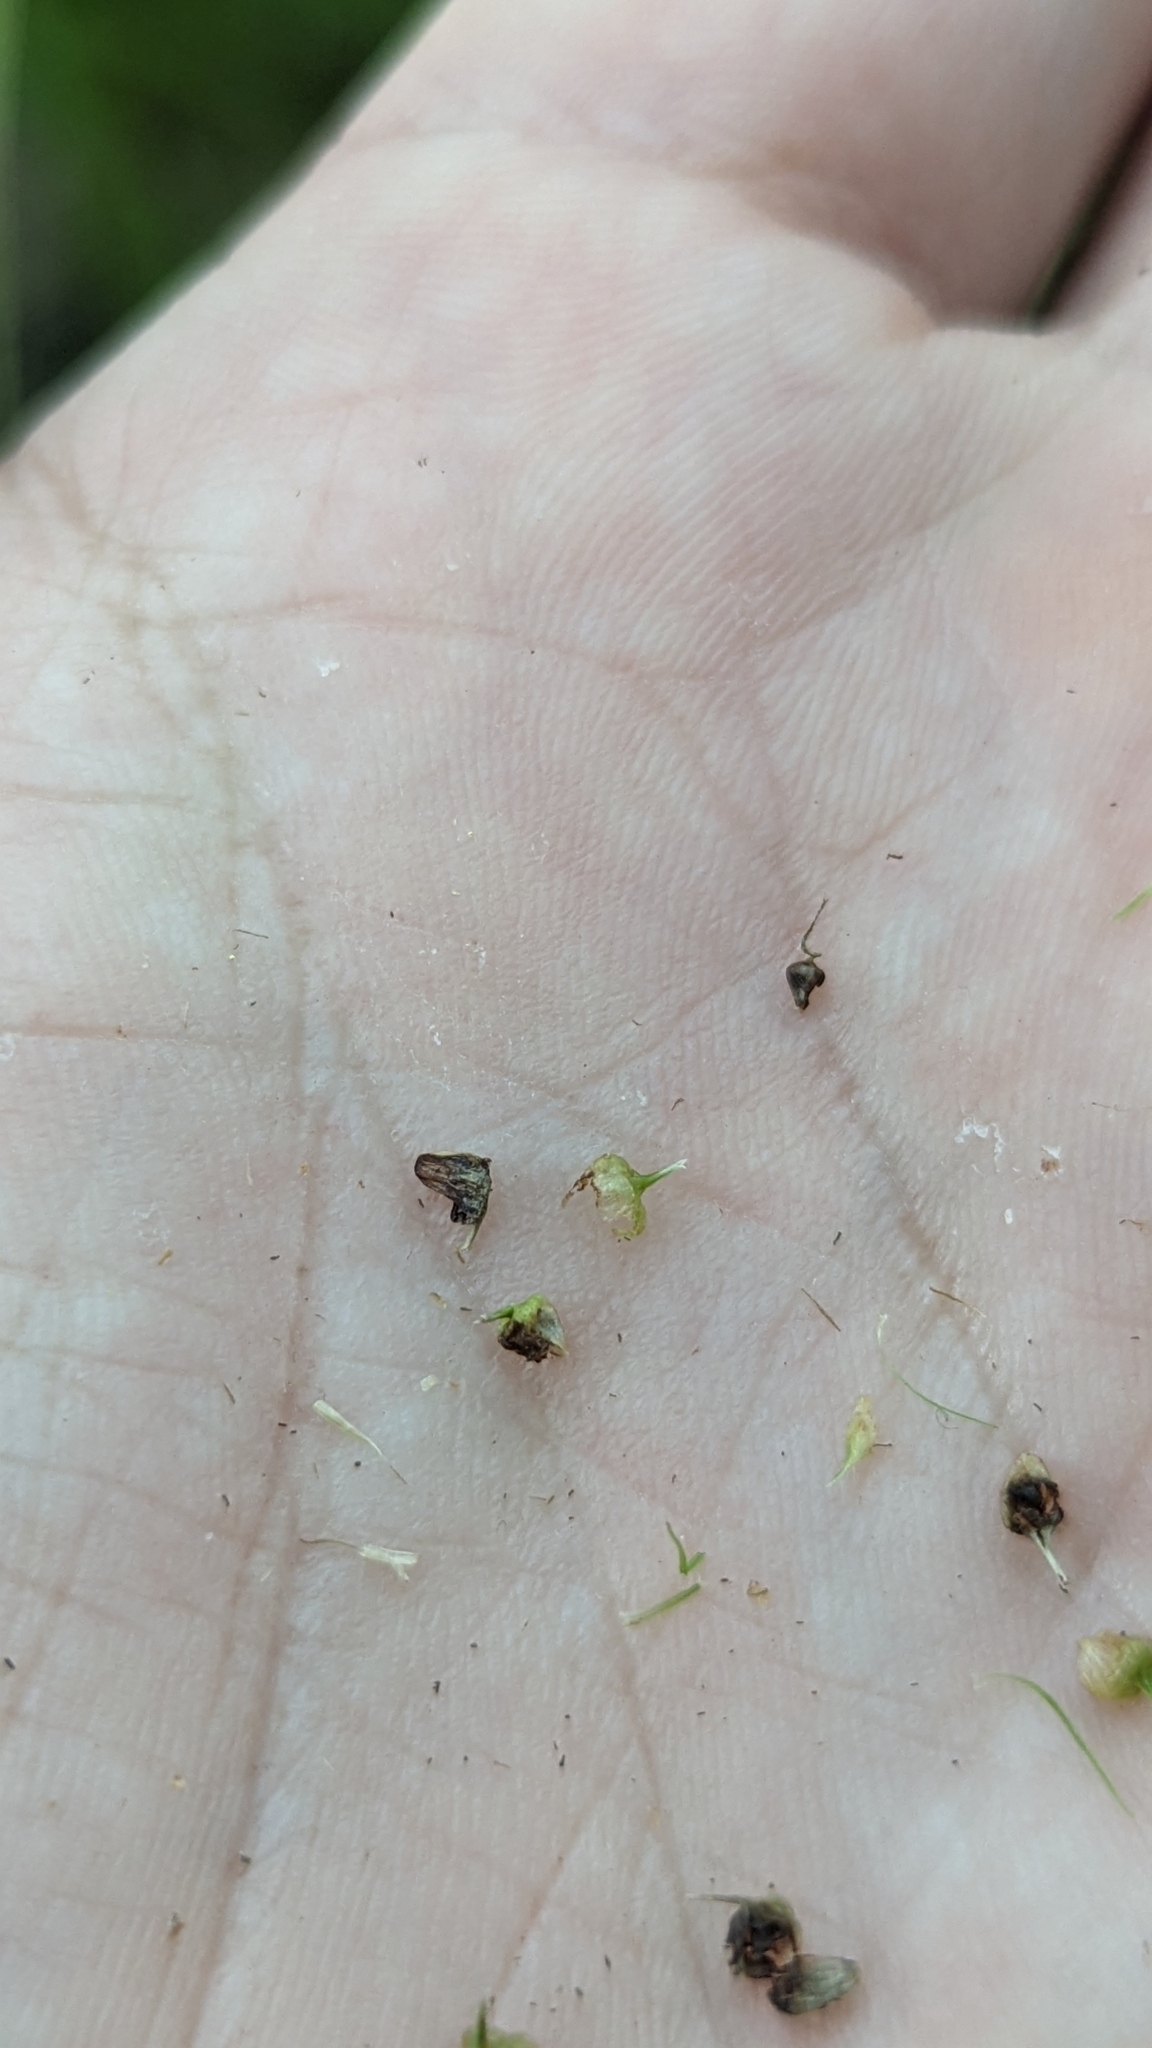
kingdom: Plantae
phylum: Tracheophyta
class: Liliopsida
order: Poales
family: Cyperaceae
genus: Carex
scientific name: Carex frankii
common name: Frank's sedge
